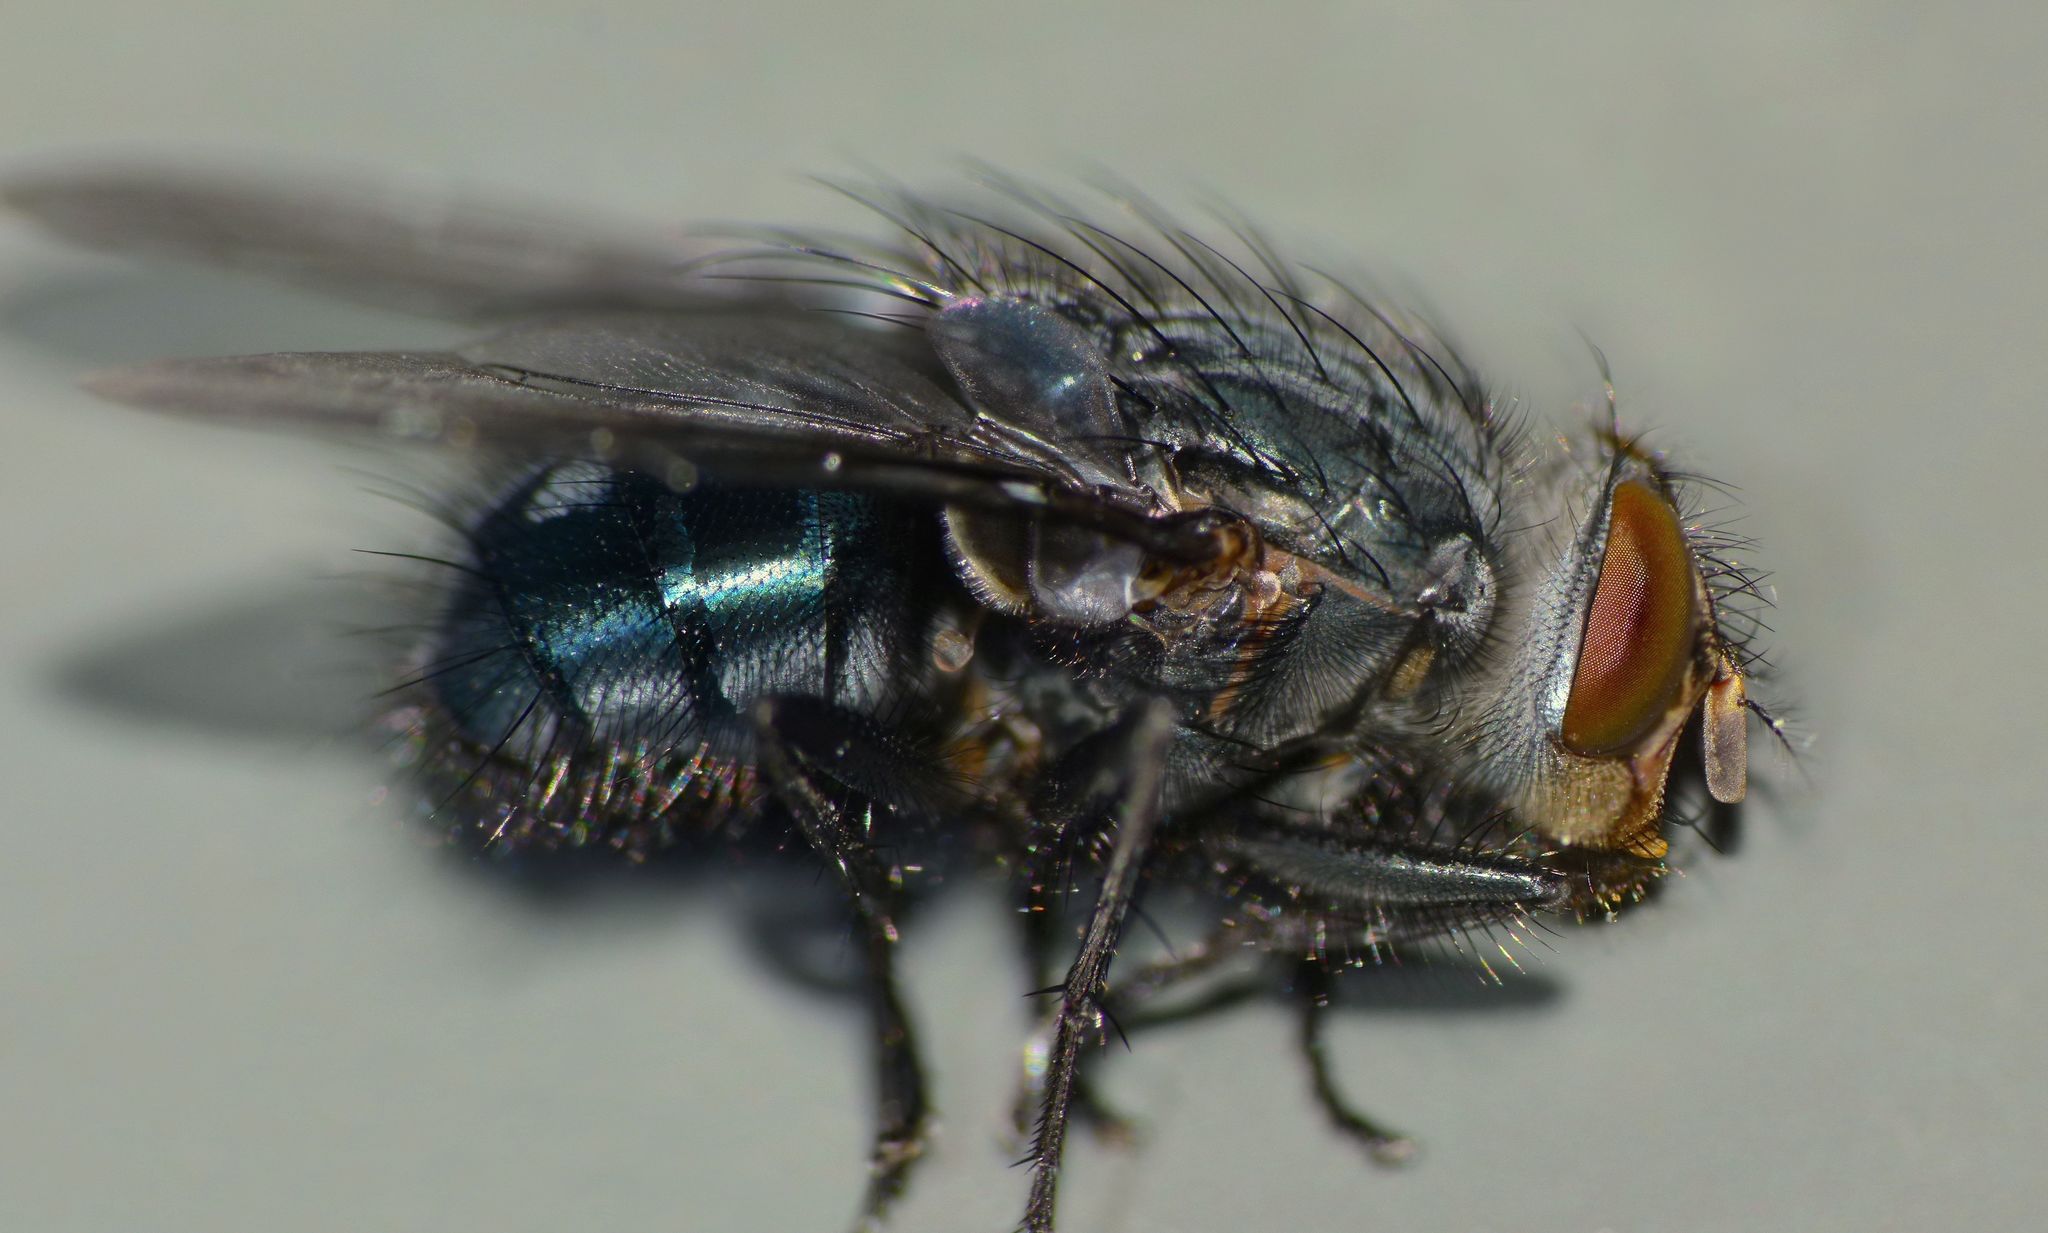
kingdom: Animalia
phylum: Arthropoda
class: Insecta
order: Diptera
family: Calliphoridae
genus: Calliphora
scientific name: Calliphora vicina
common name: Common blow flie
